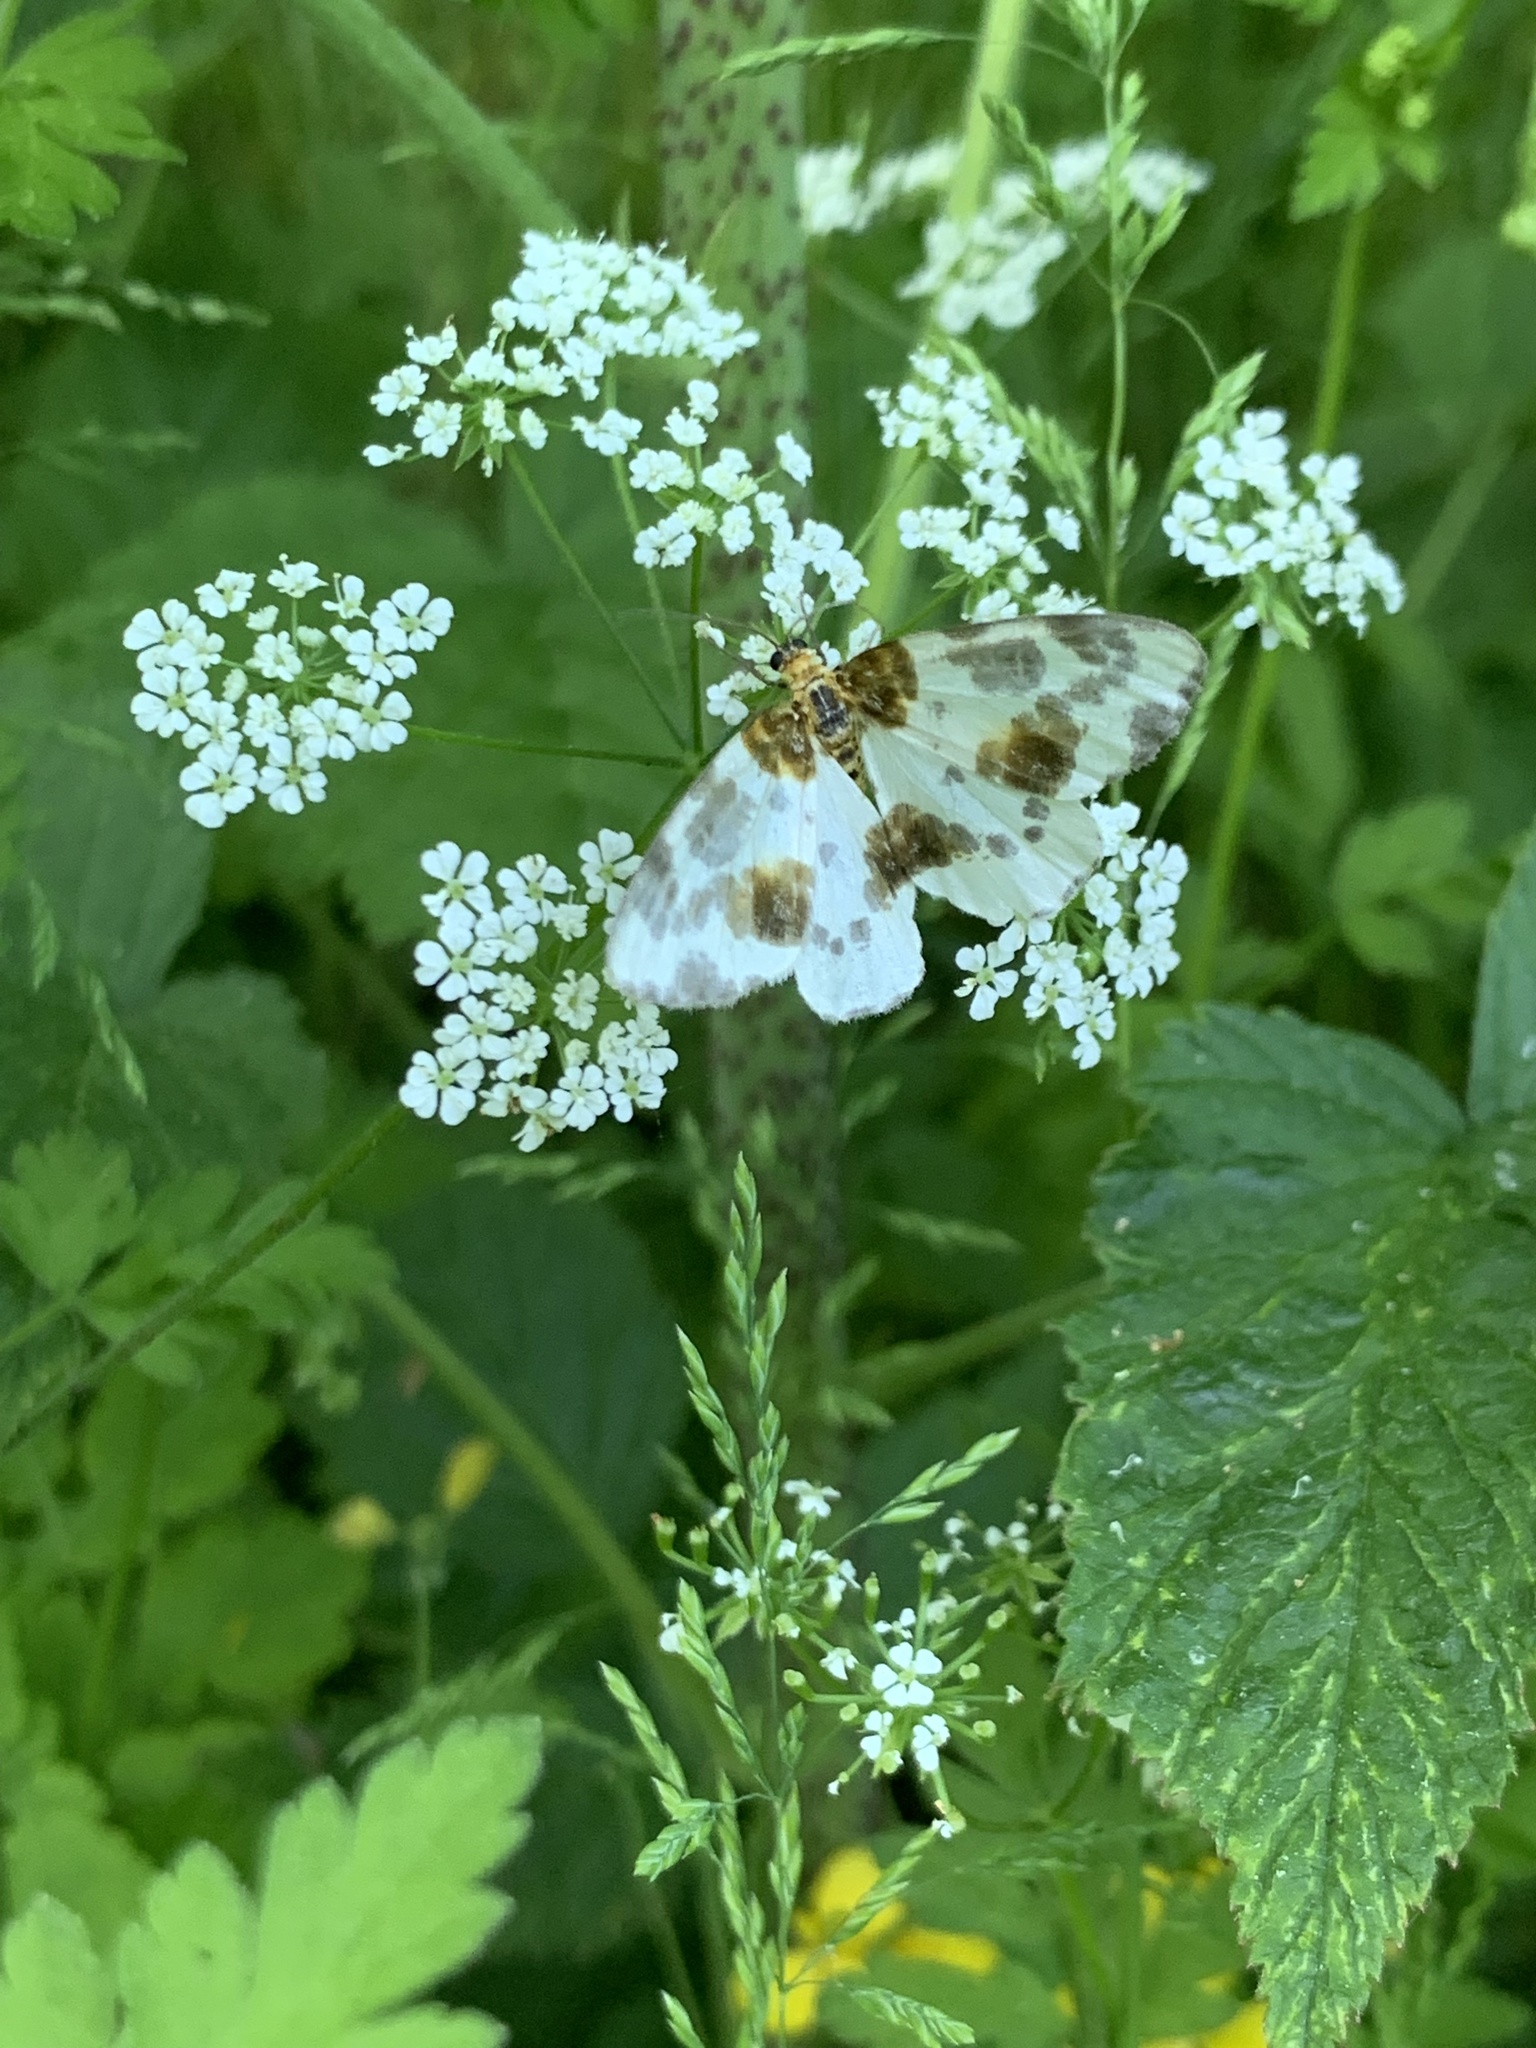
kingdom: Animalia
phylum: Arthropoda
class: Insecta
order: Lepidoptera
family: Geometridae
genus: Abraxas
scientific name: Abraxas sylvata
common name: Clouded magpie
